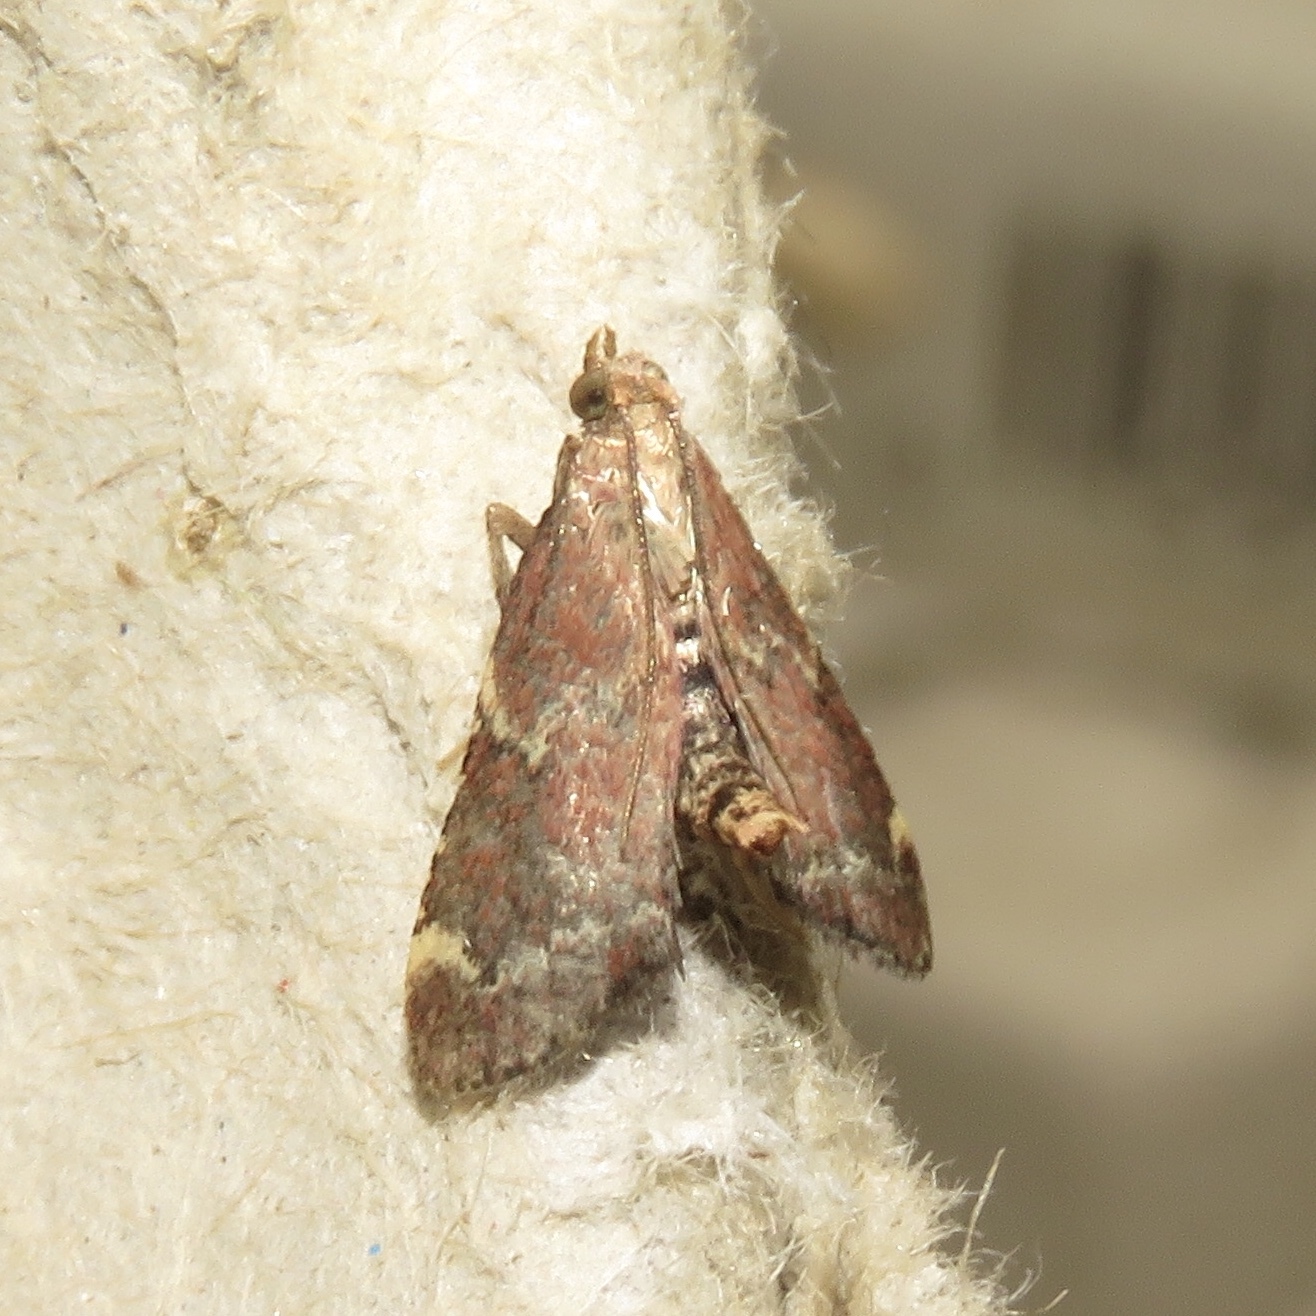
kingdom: Animalia
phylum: Arthropoda
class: Insecta
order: Lepidoptera
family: Pyralidae
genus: Hypsopygia
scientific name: Hypsopygia intermedialis
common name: Red-shawled moth
